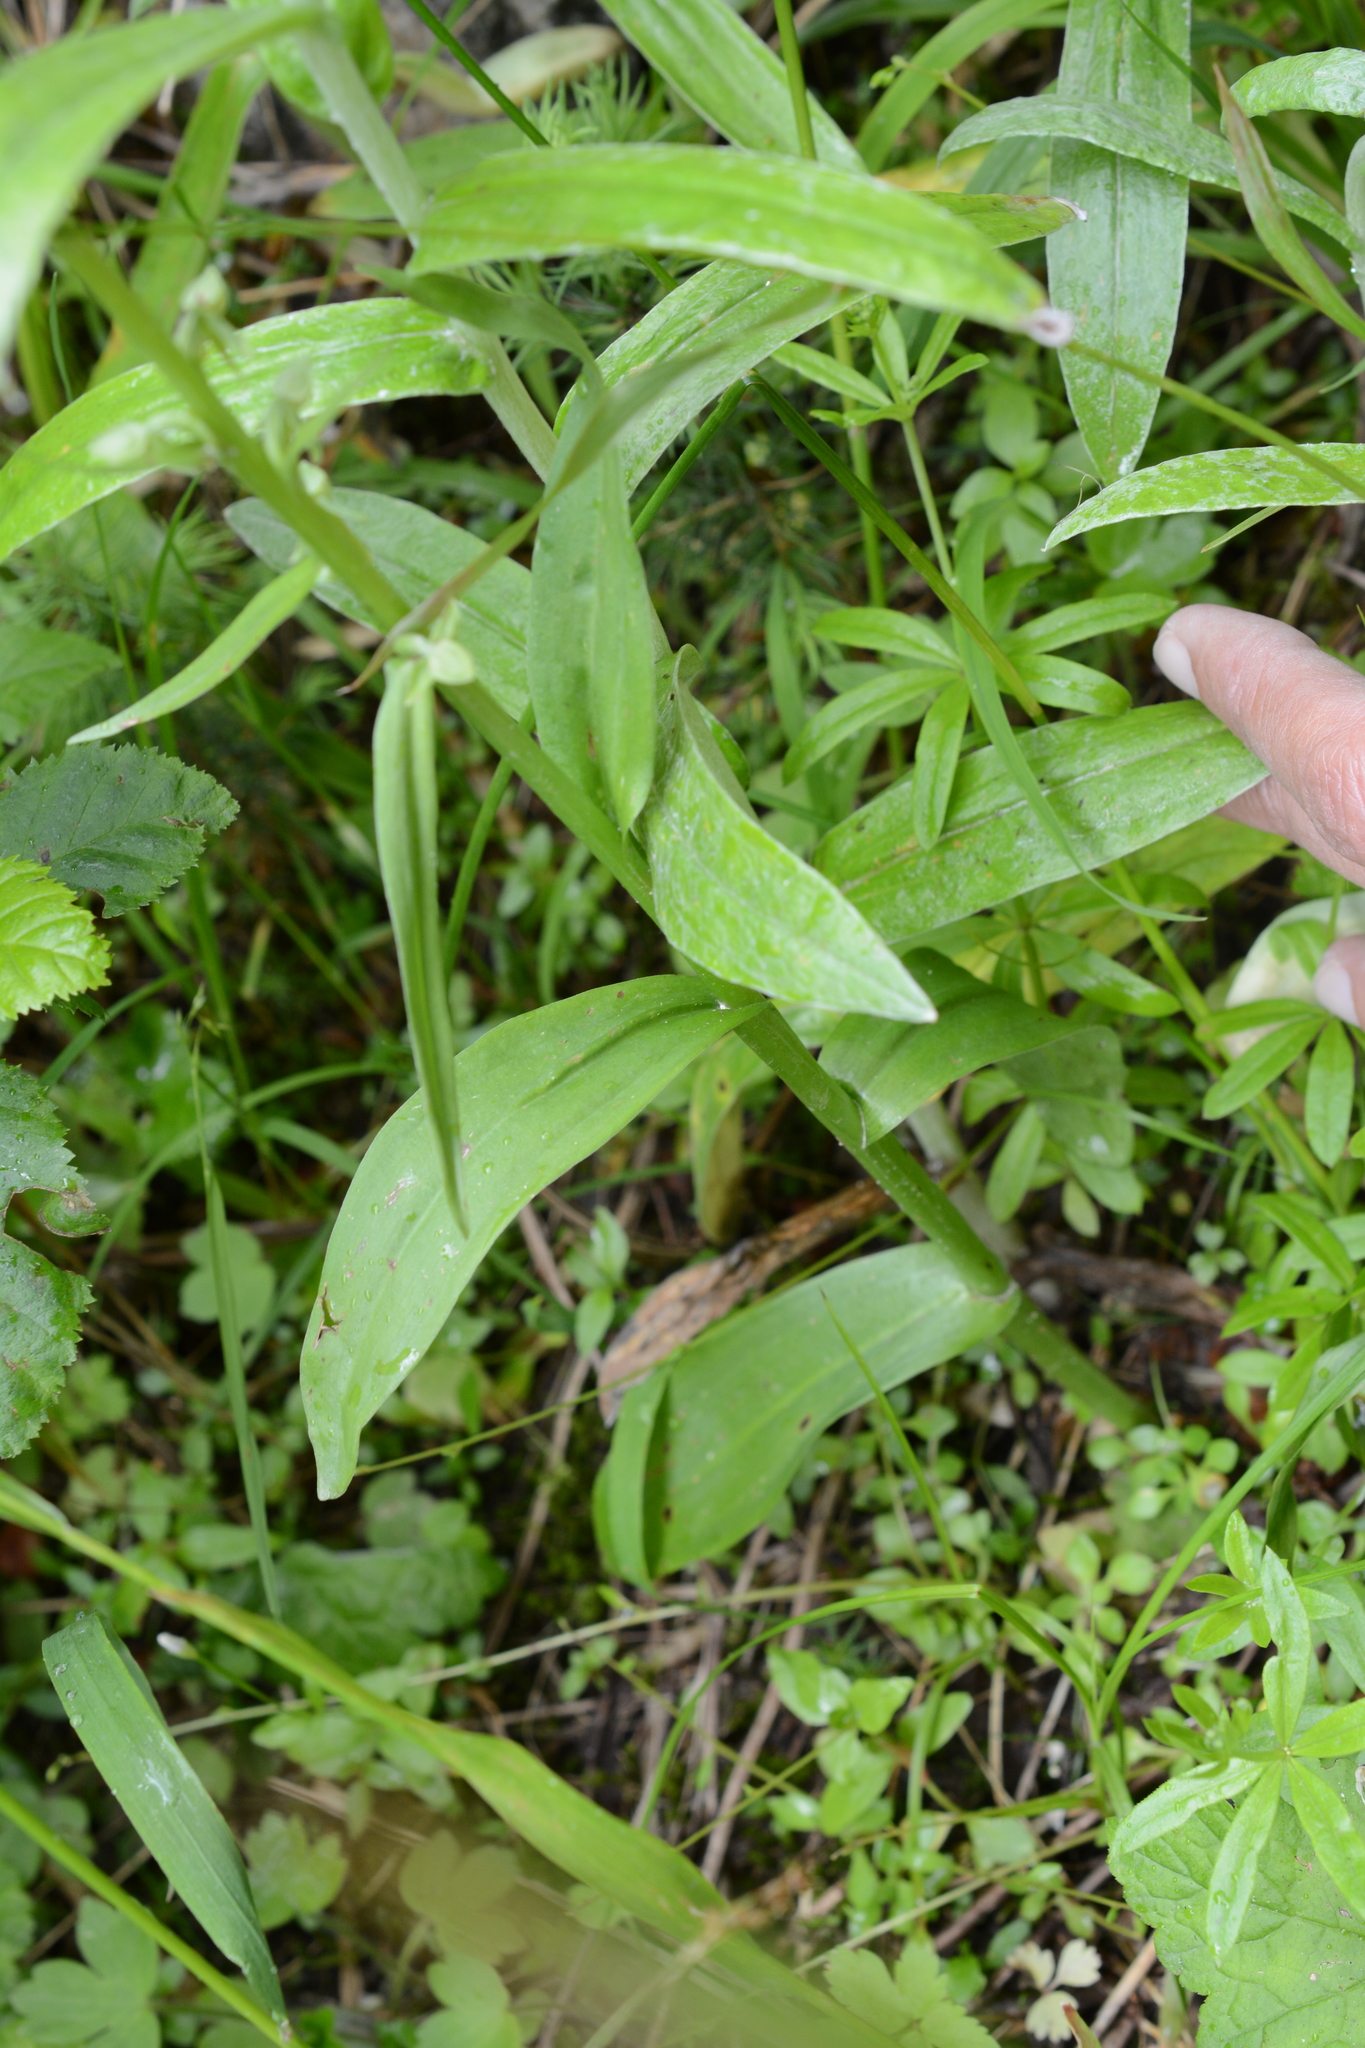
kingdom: Plantae
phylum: Tracheophyta
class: Liliopsida
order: Asparagales
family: Orchidaceae
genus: Platanthera
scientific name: Platanthera stricta
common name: Slender bog orchid
